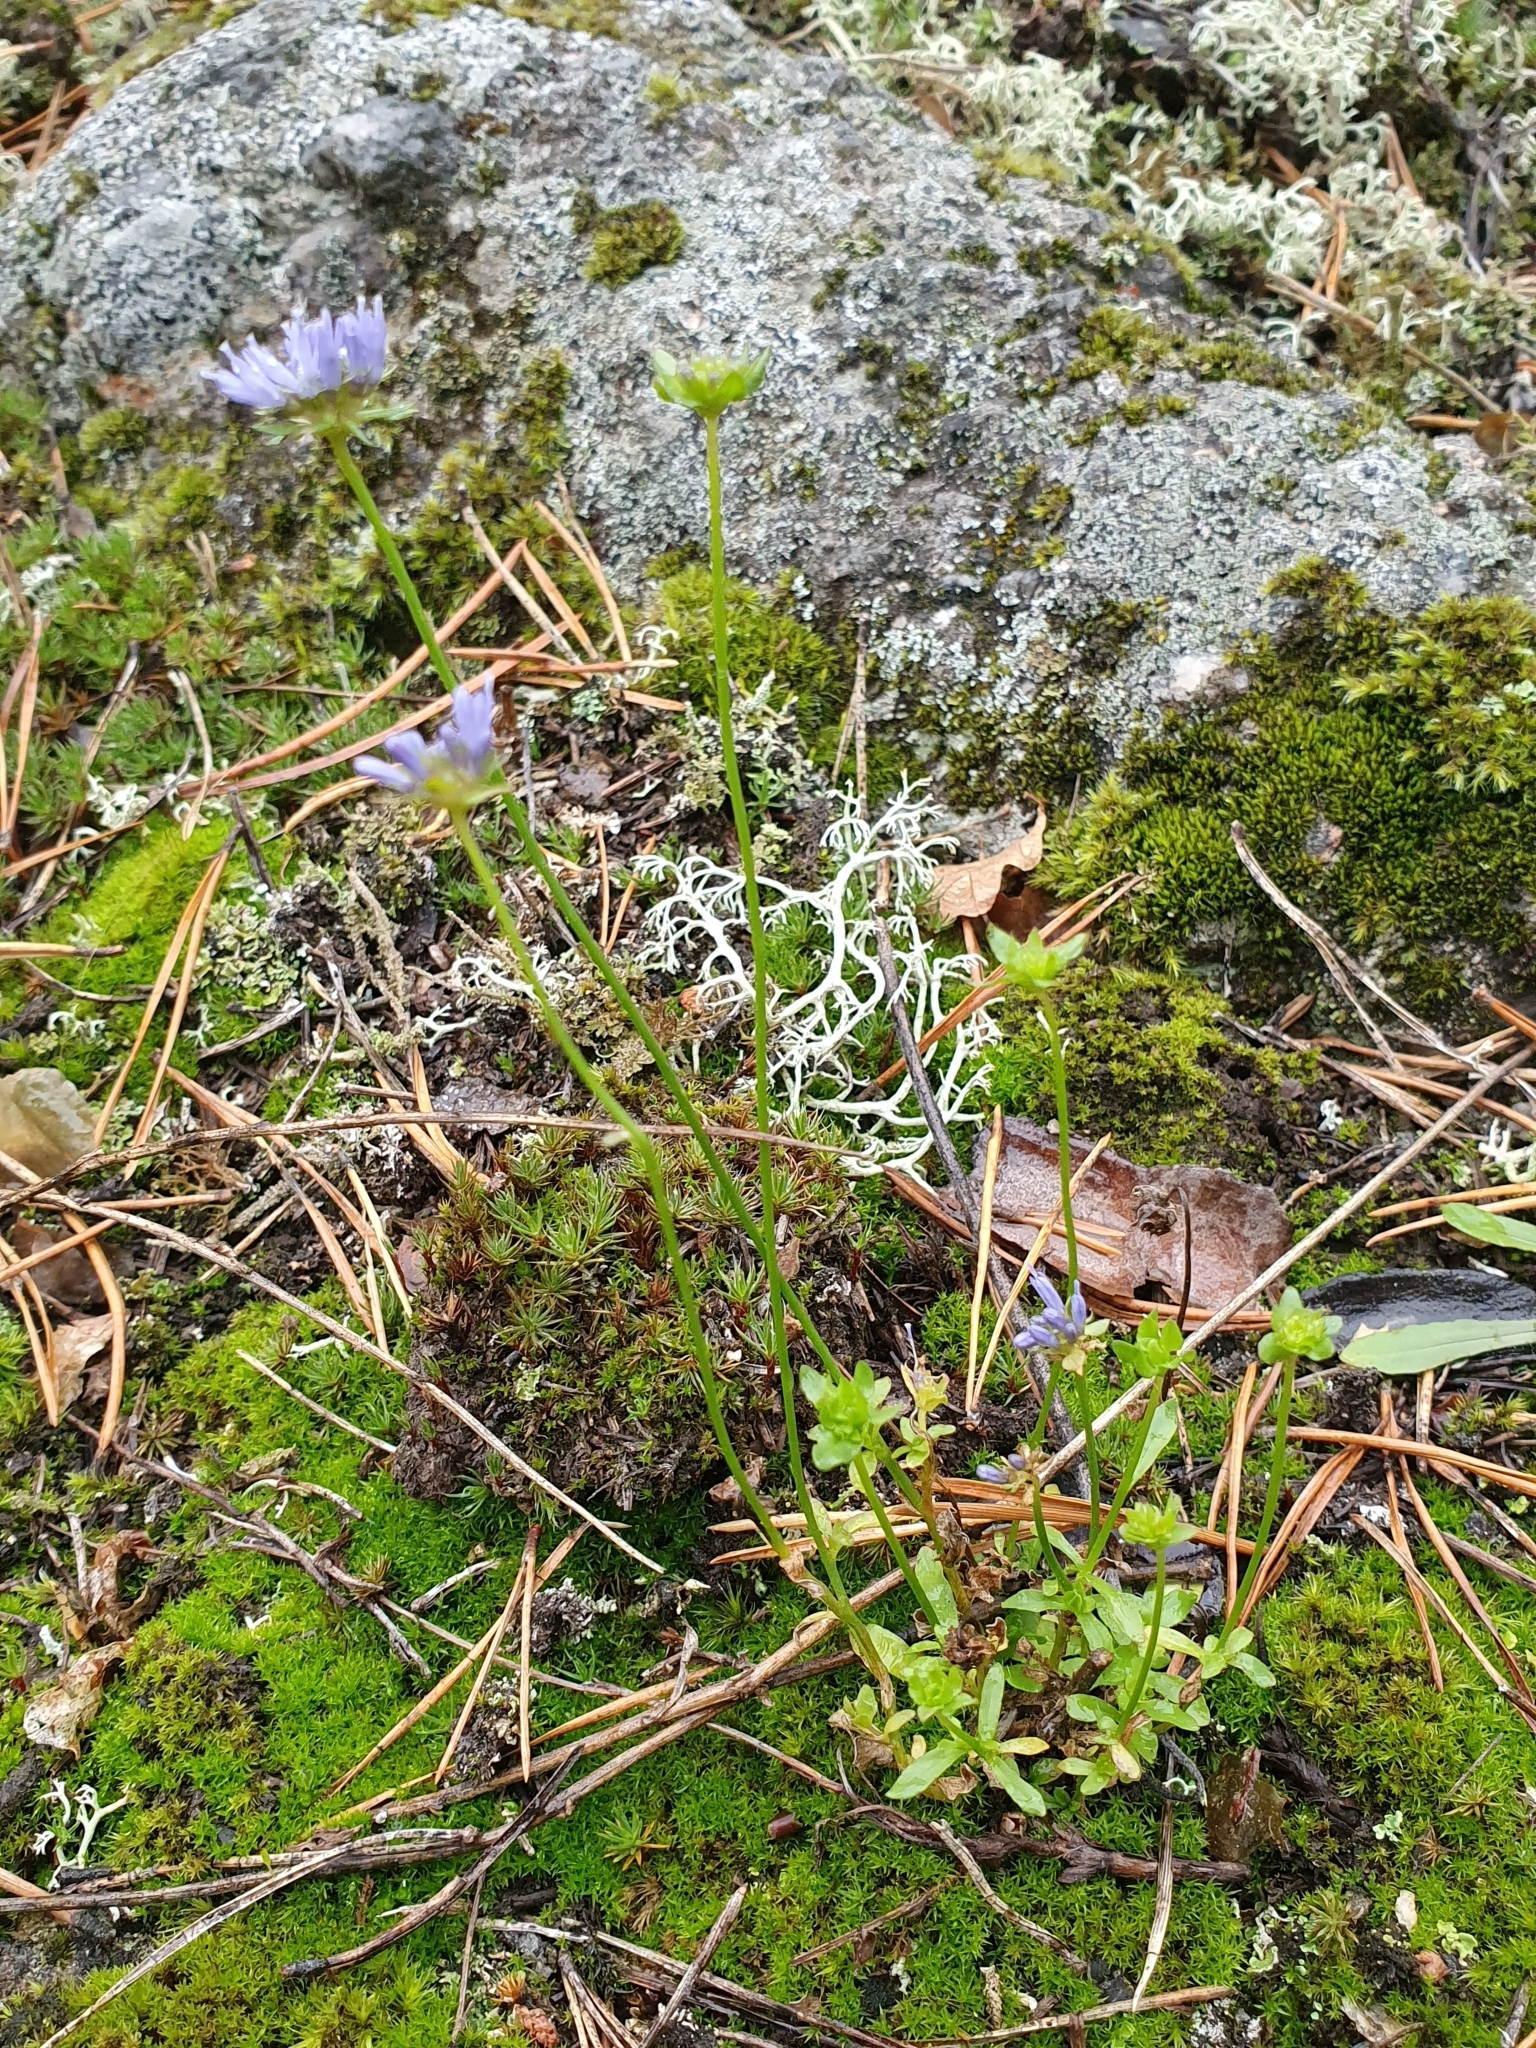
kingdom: Plantae
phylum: Tracheophyta
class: Magnoliopsida
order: Asterales
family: Campanulaceae
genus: Jasione
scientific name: Jasione montana
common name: Sheep's-bit
